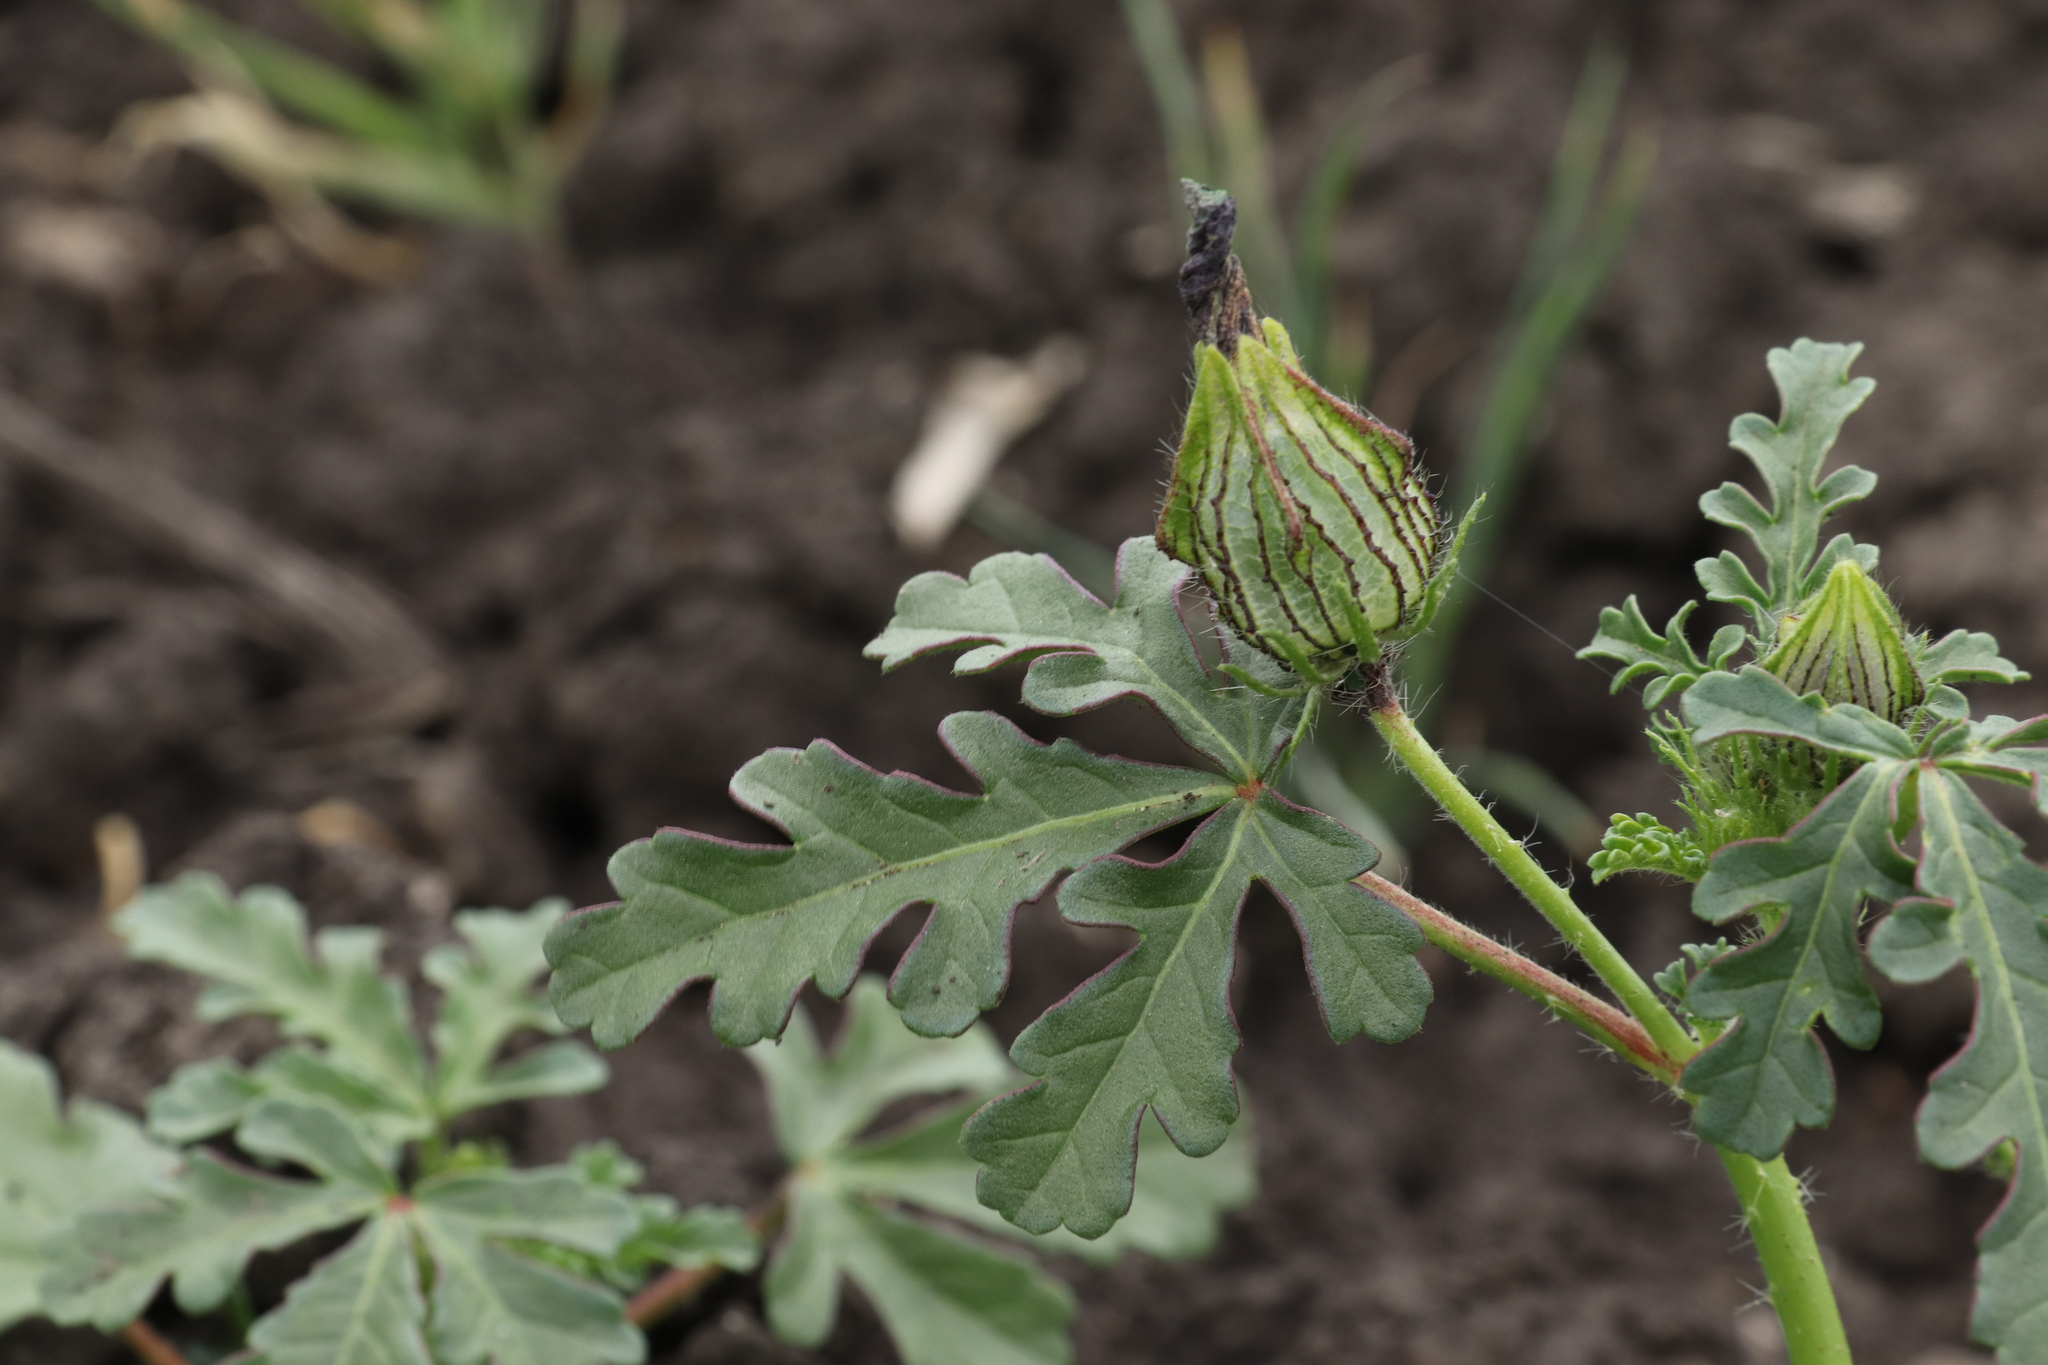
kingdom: Plantae
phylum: Tracheophyta
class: Magnoliopsida
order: Malvales
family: Malvaceae
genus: Hibiscus
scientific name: Hibiscus trionum
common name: Bladder ketmia
